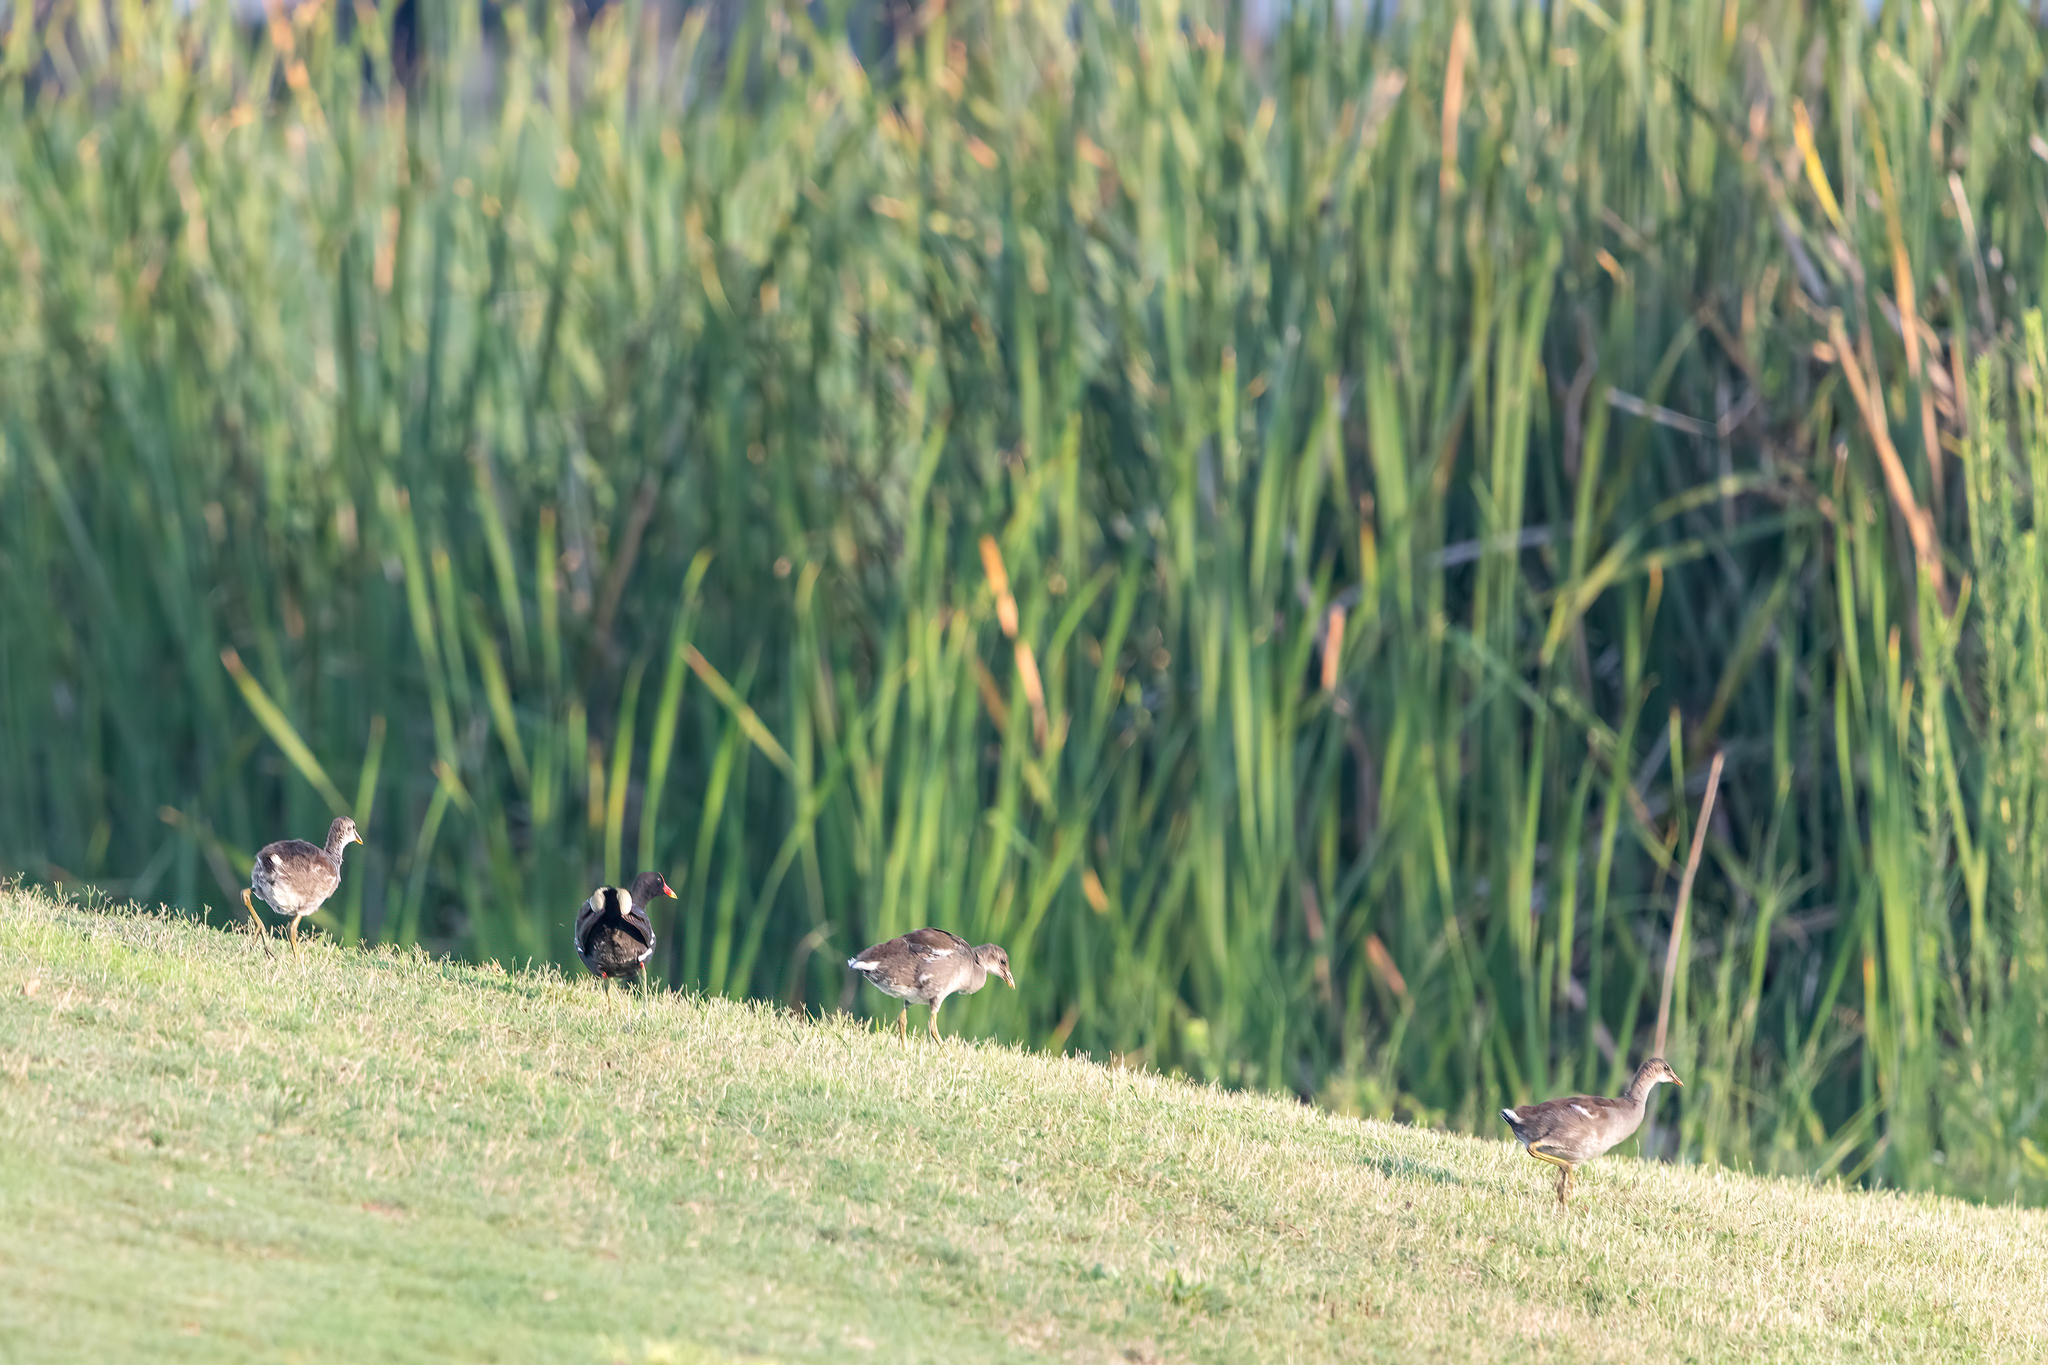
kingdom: Animalia
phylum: Chordata
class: Aves
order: Gruiformes
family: Rallidae
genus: Gallinula
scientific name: Gallinula chloropus
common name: Common moorhen
